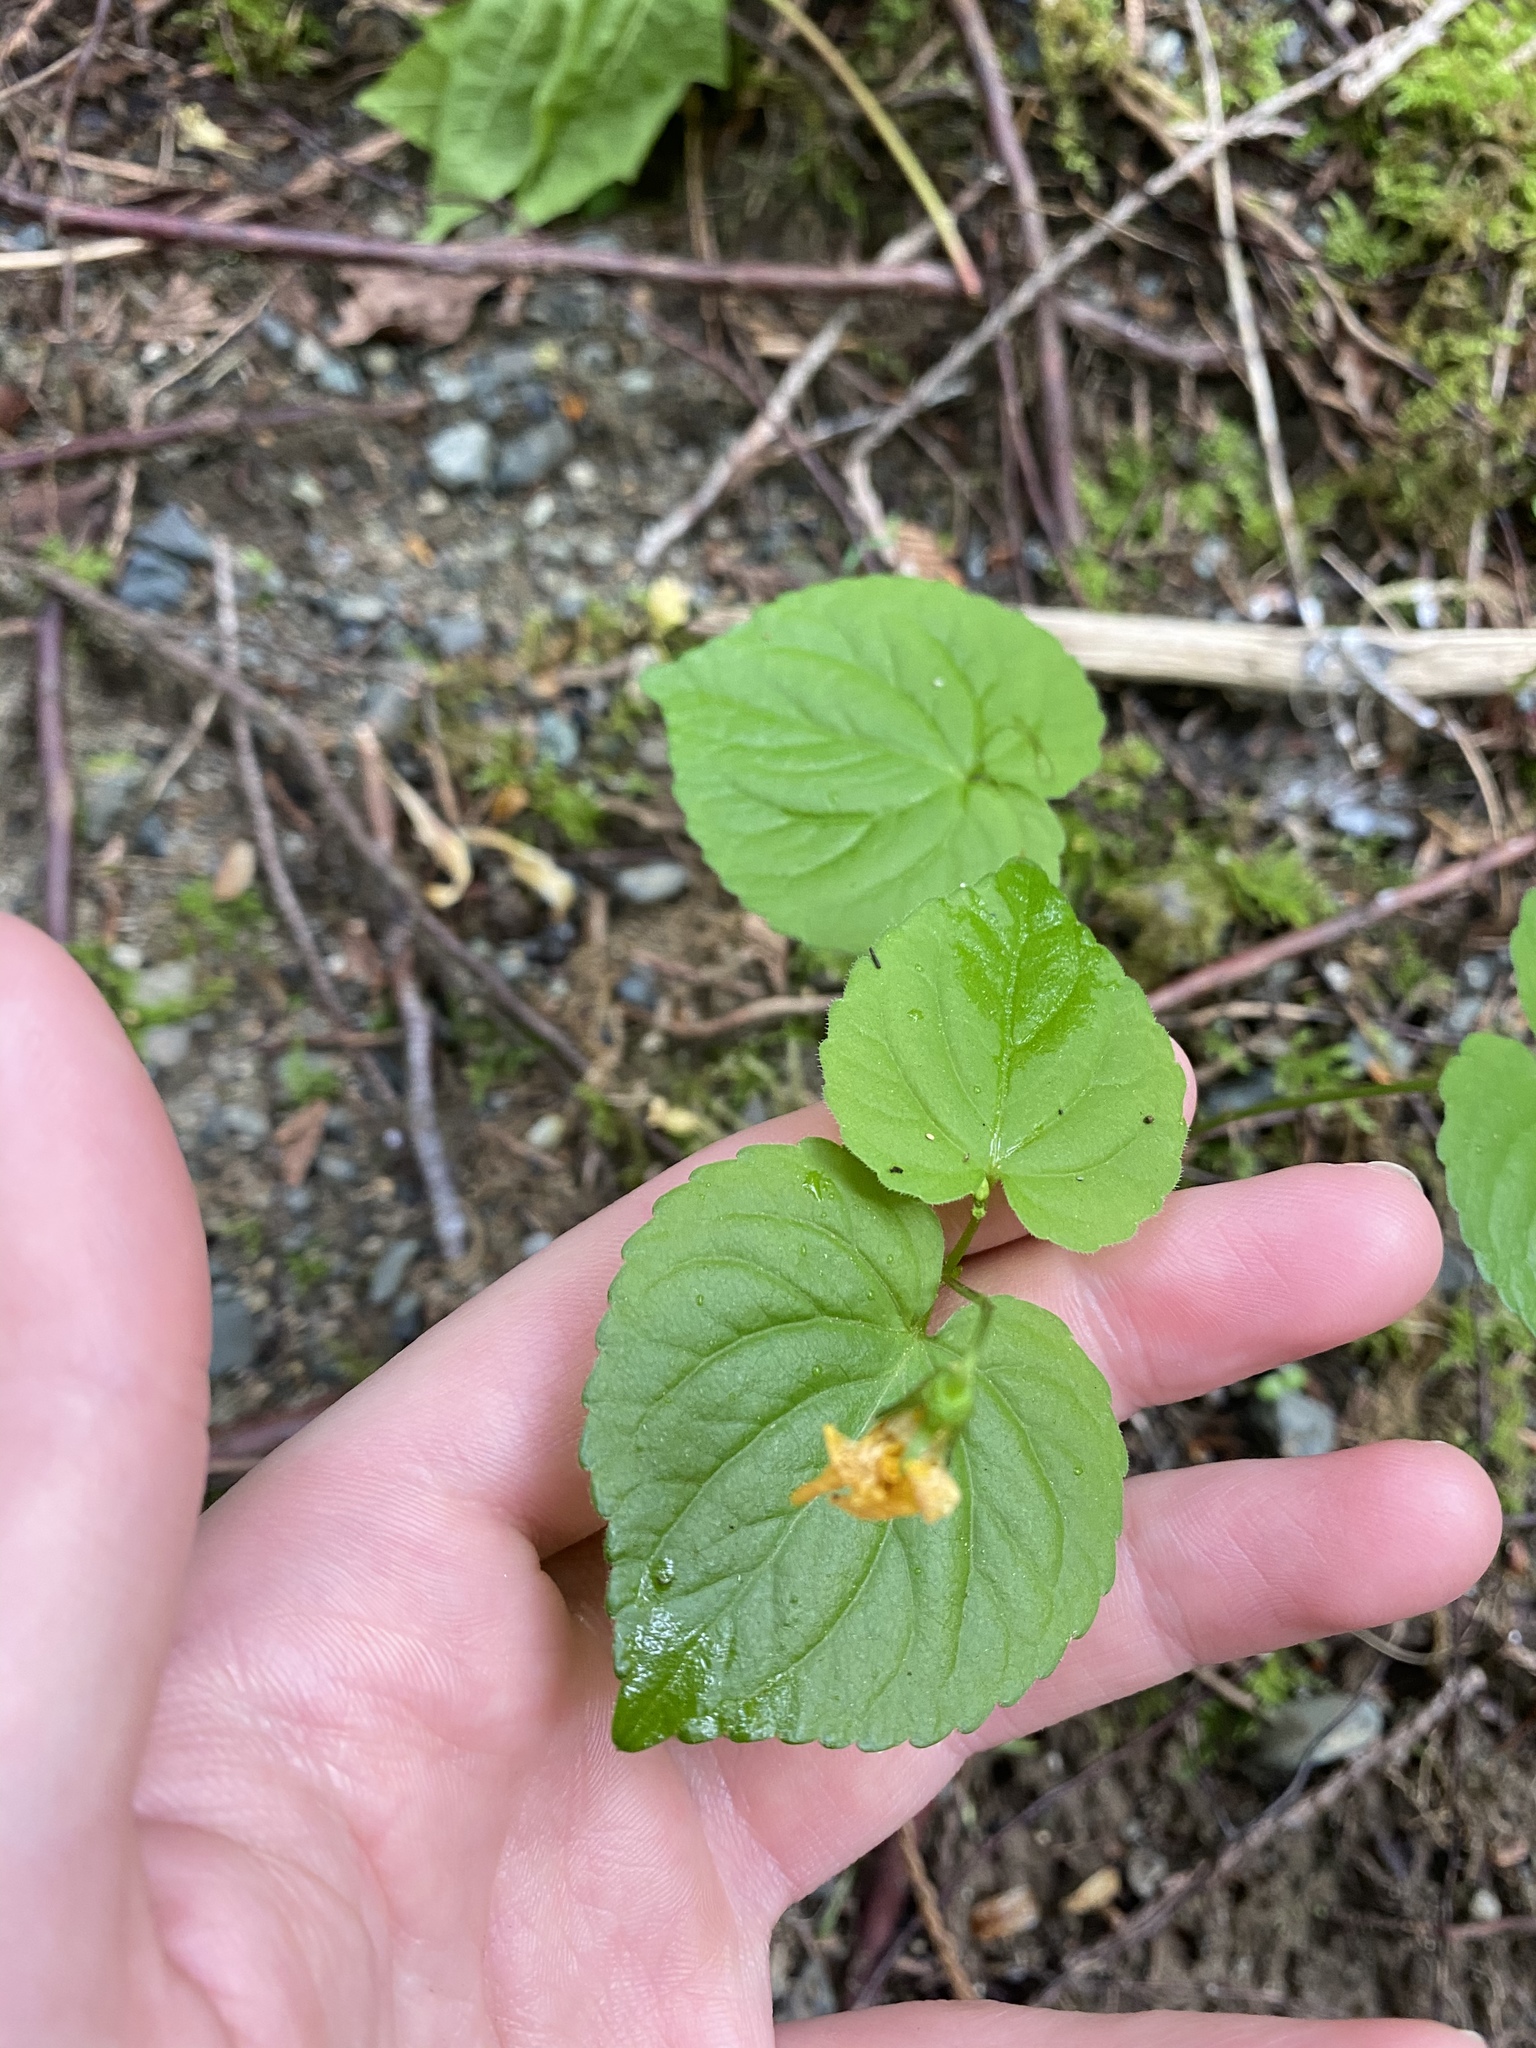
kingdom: Plantae
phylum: Tracheophyta
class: Magnoliopsida
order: Malpighiales
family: Violaceae
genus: Viola
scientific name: Viola glabella
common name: Stream violet
